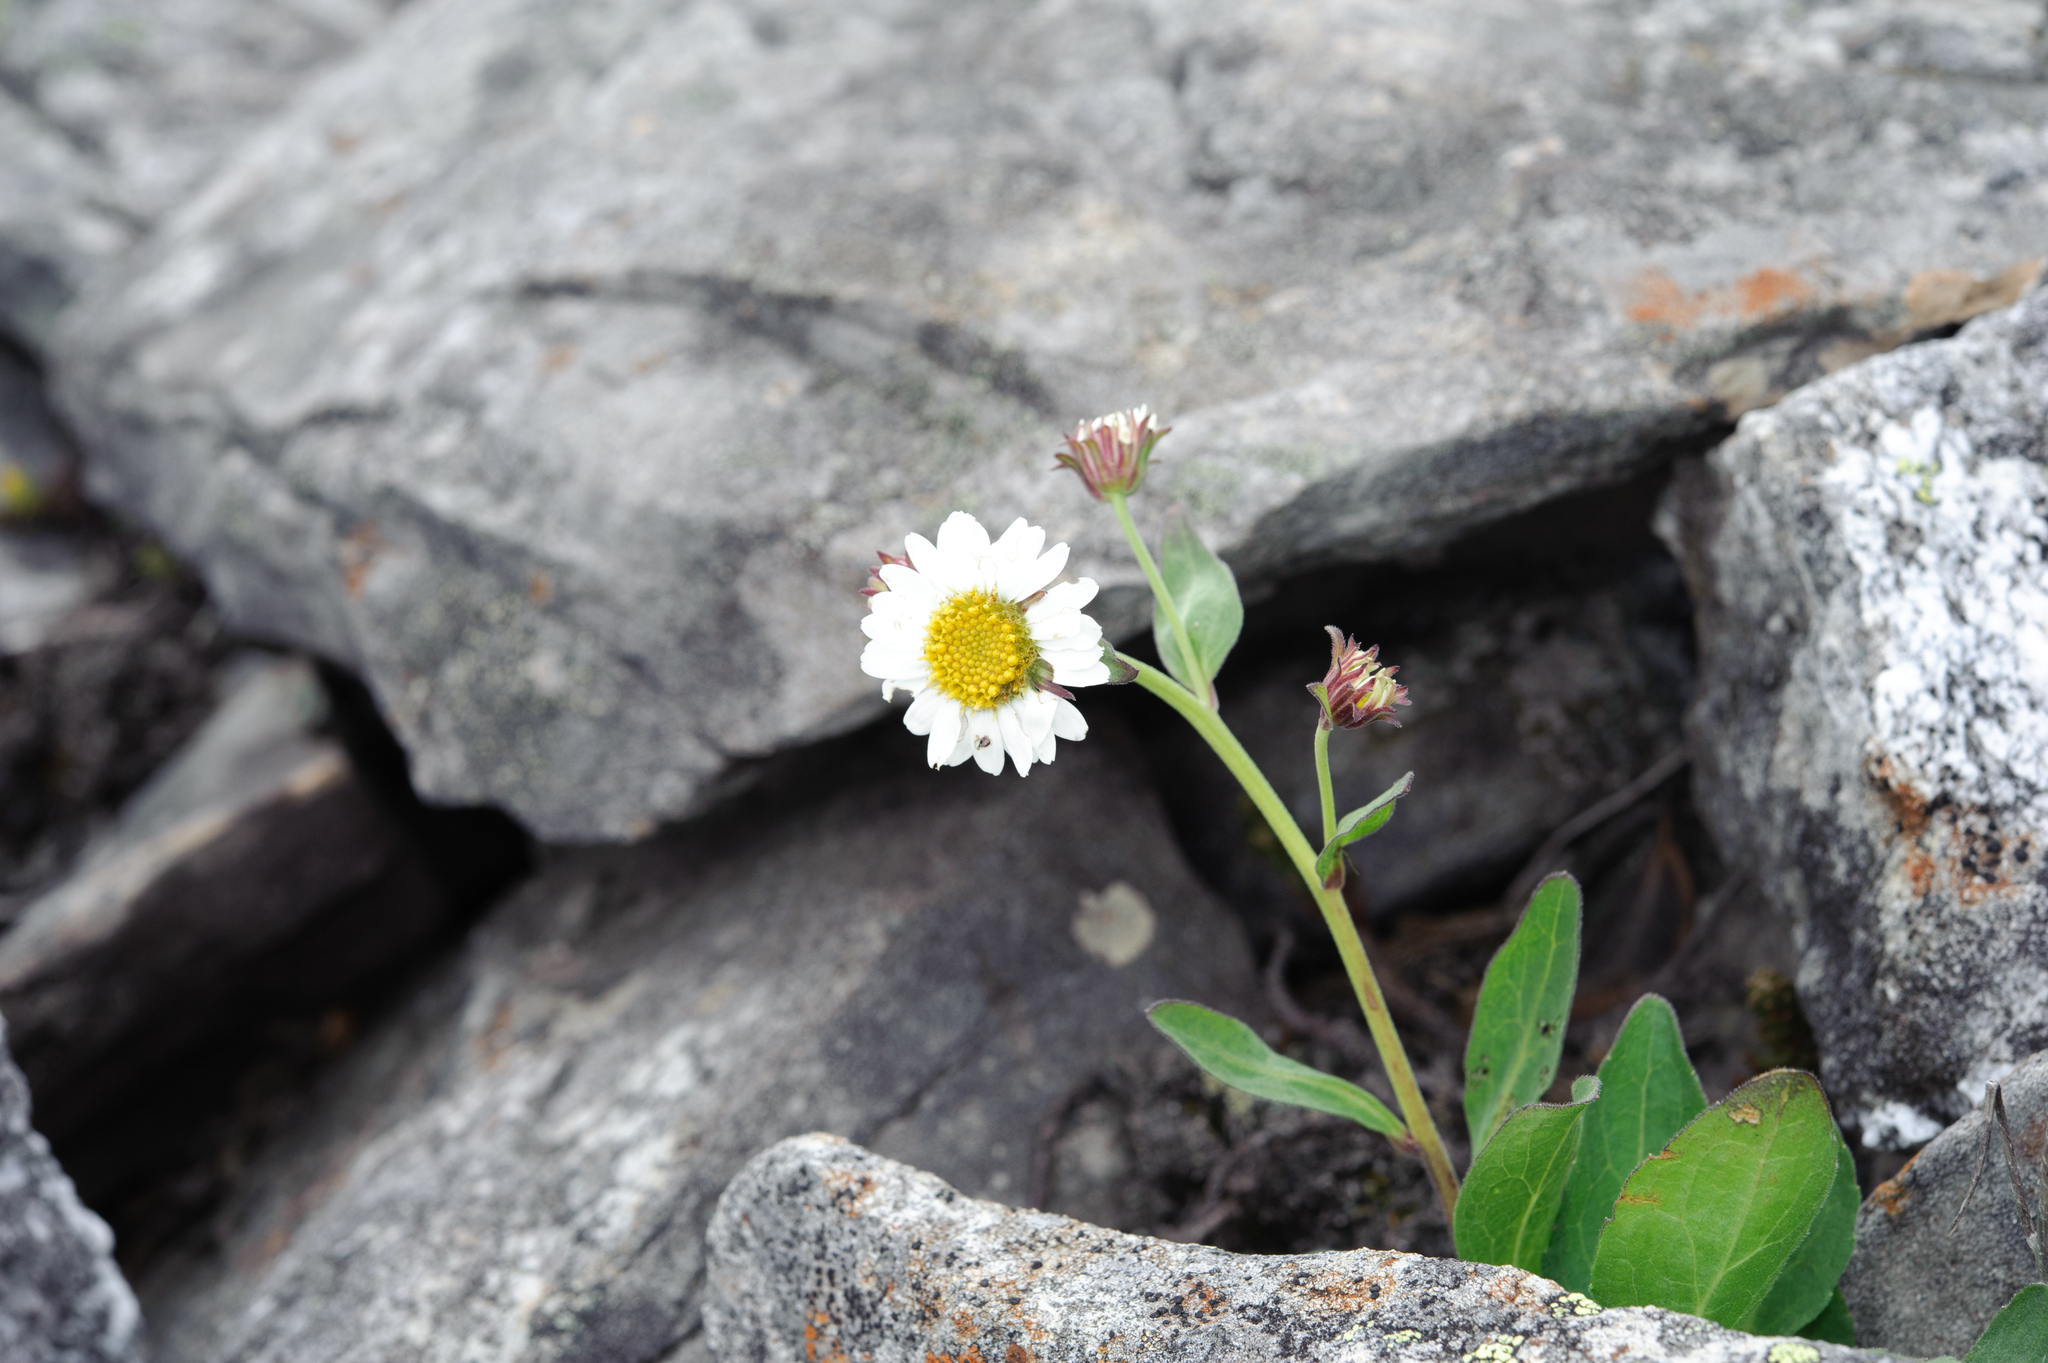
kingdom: Plantae
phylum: Tracheophyta
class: Magnoliopsida
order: Asterales
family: Asteraceae
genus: Aster
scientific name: Aster takasagomontanus
